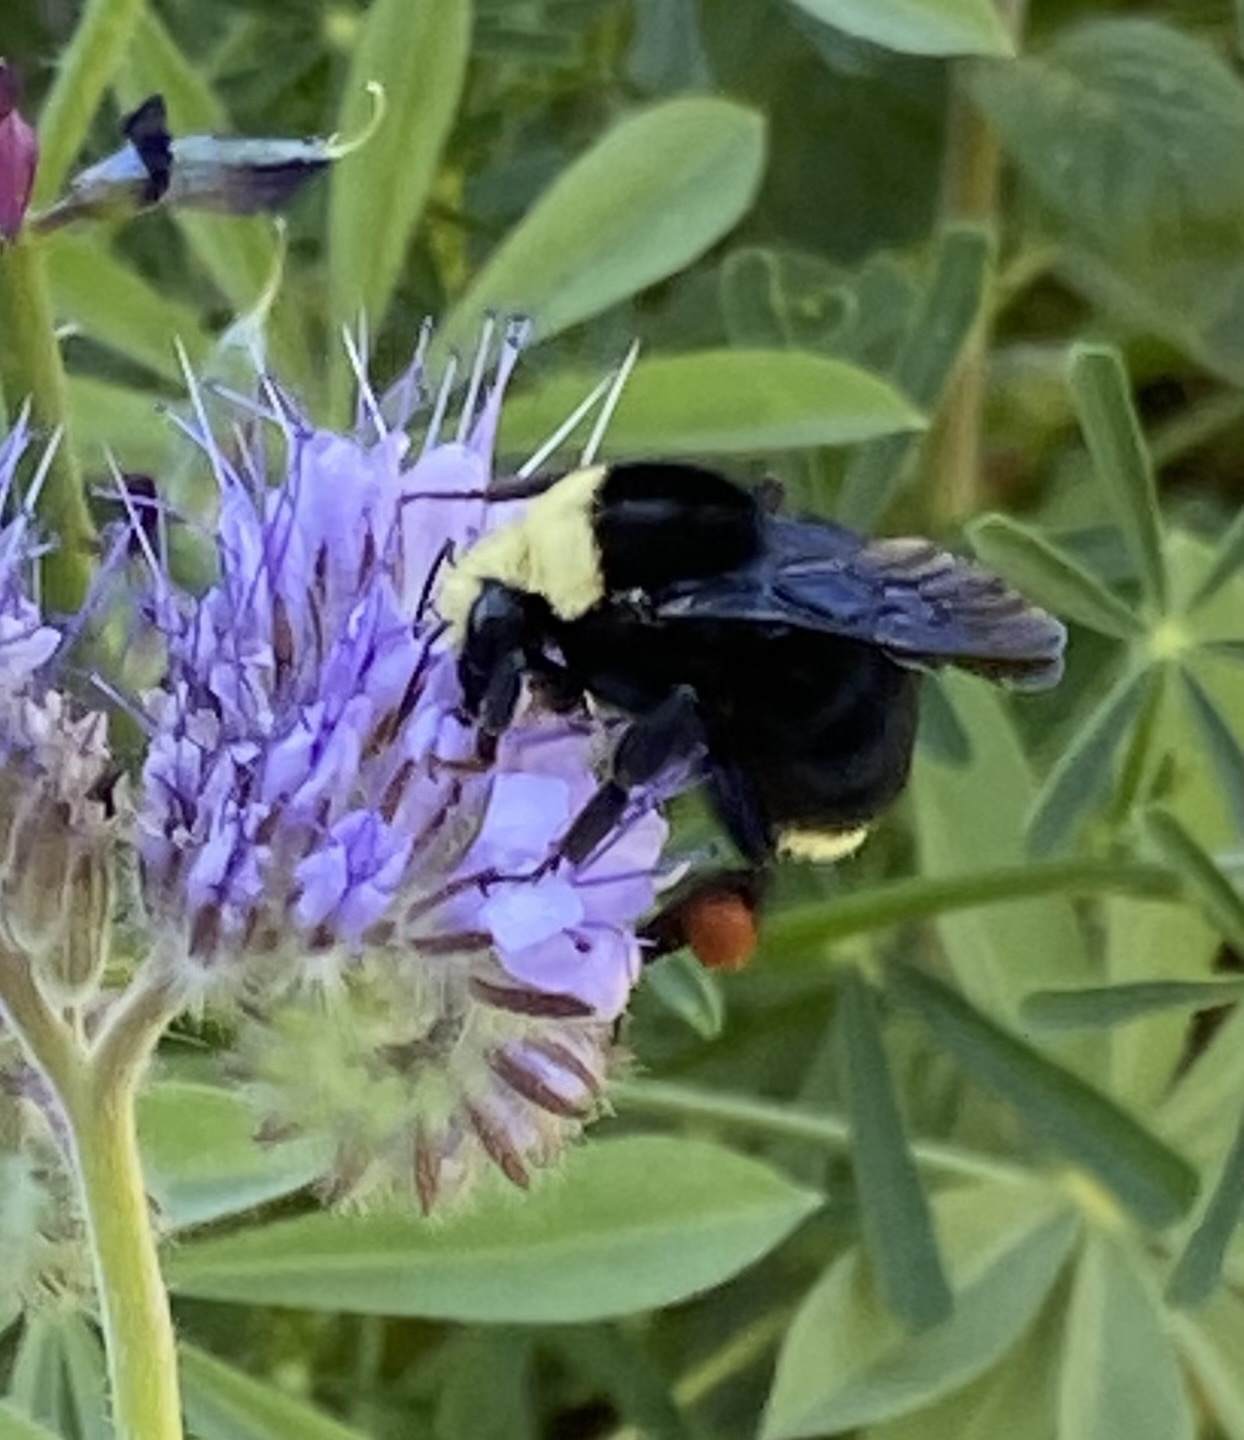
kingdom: Animalia
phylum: Arthropoda
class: Insecta
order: Hymenoptera
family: Apidae
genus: Bombus
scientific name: Bombus vosnesenskii
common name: Vosnesensky bumble bee
